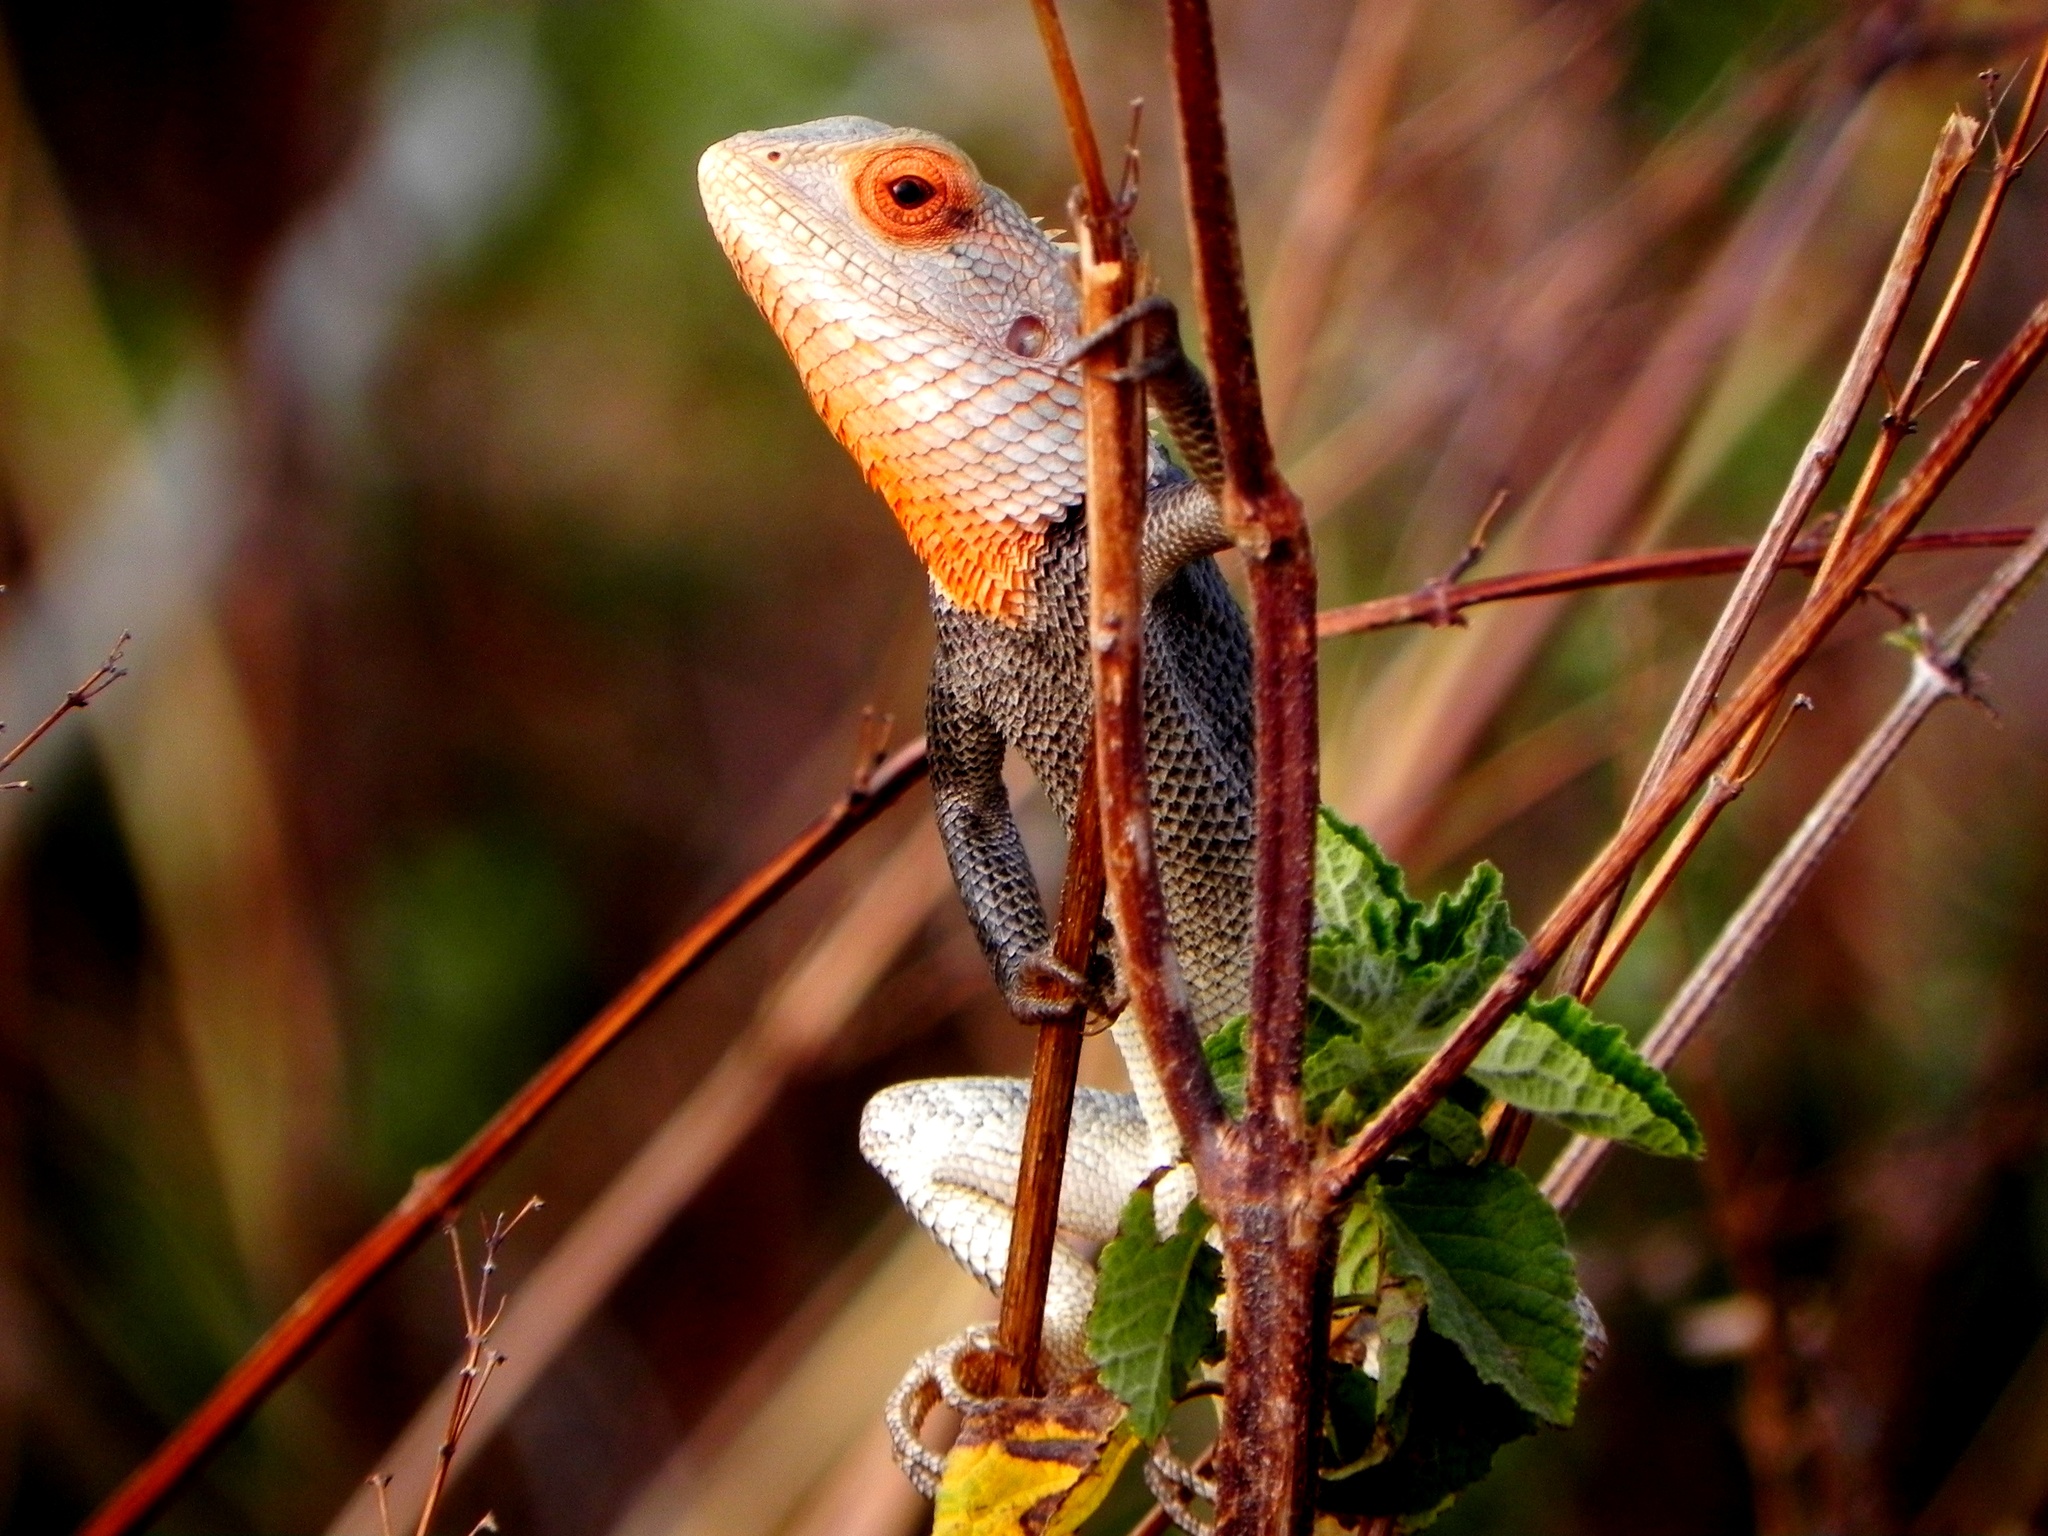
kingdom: Animalia
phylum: Chordata
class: Squamata
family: Agamidae
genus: Calotes
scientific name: Calotes versicolor
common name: Oriental garden lizard
